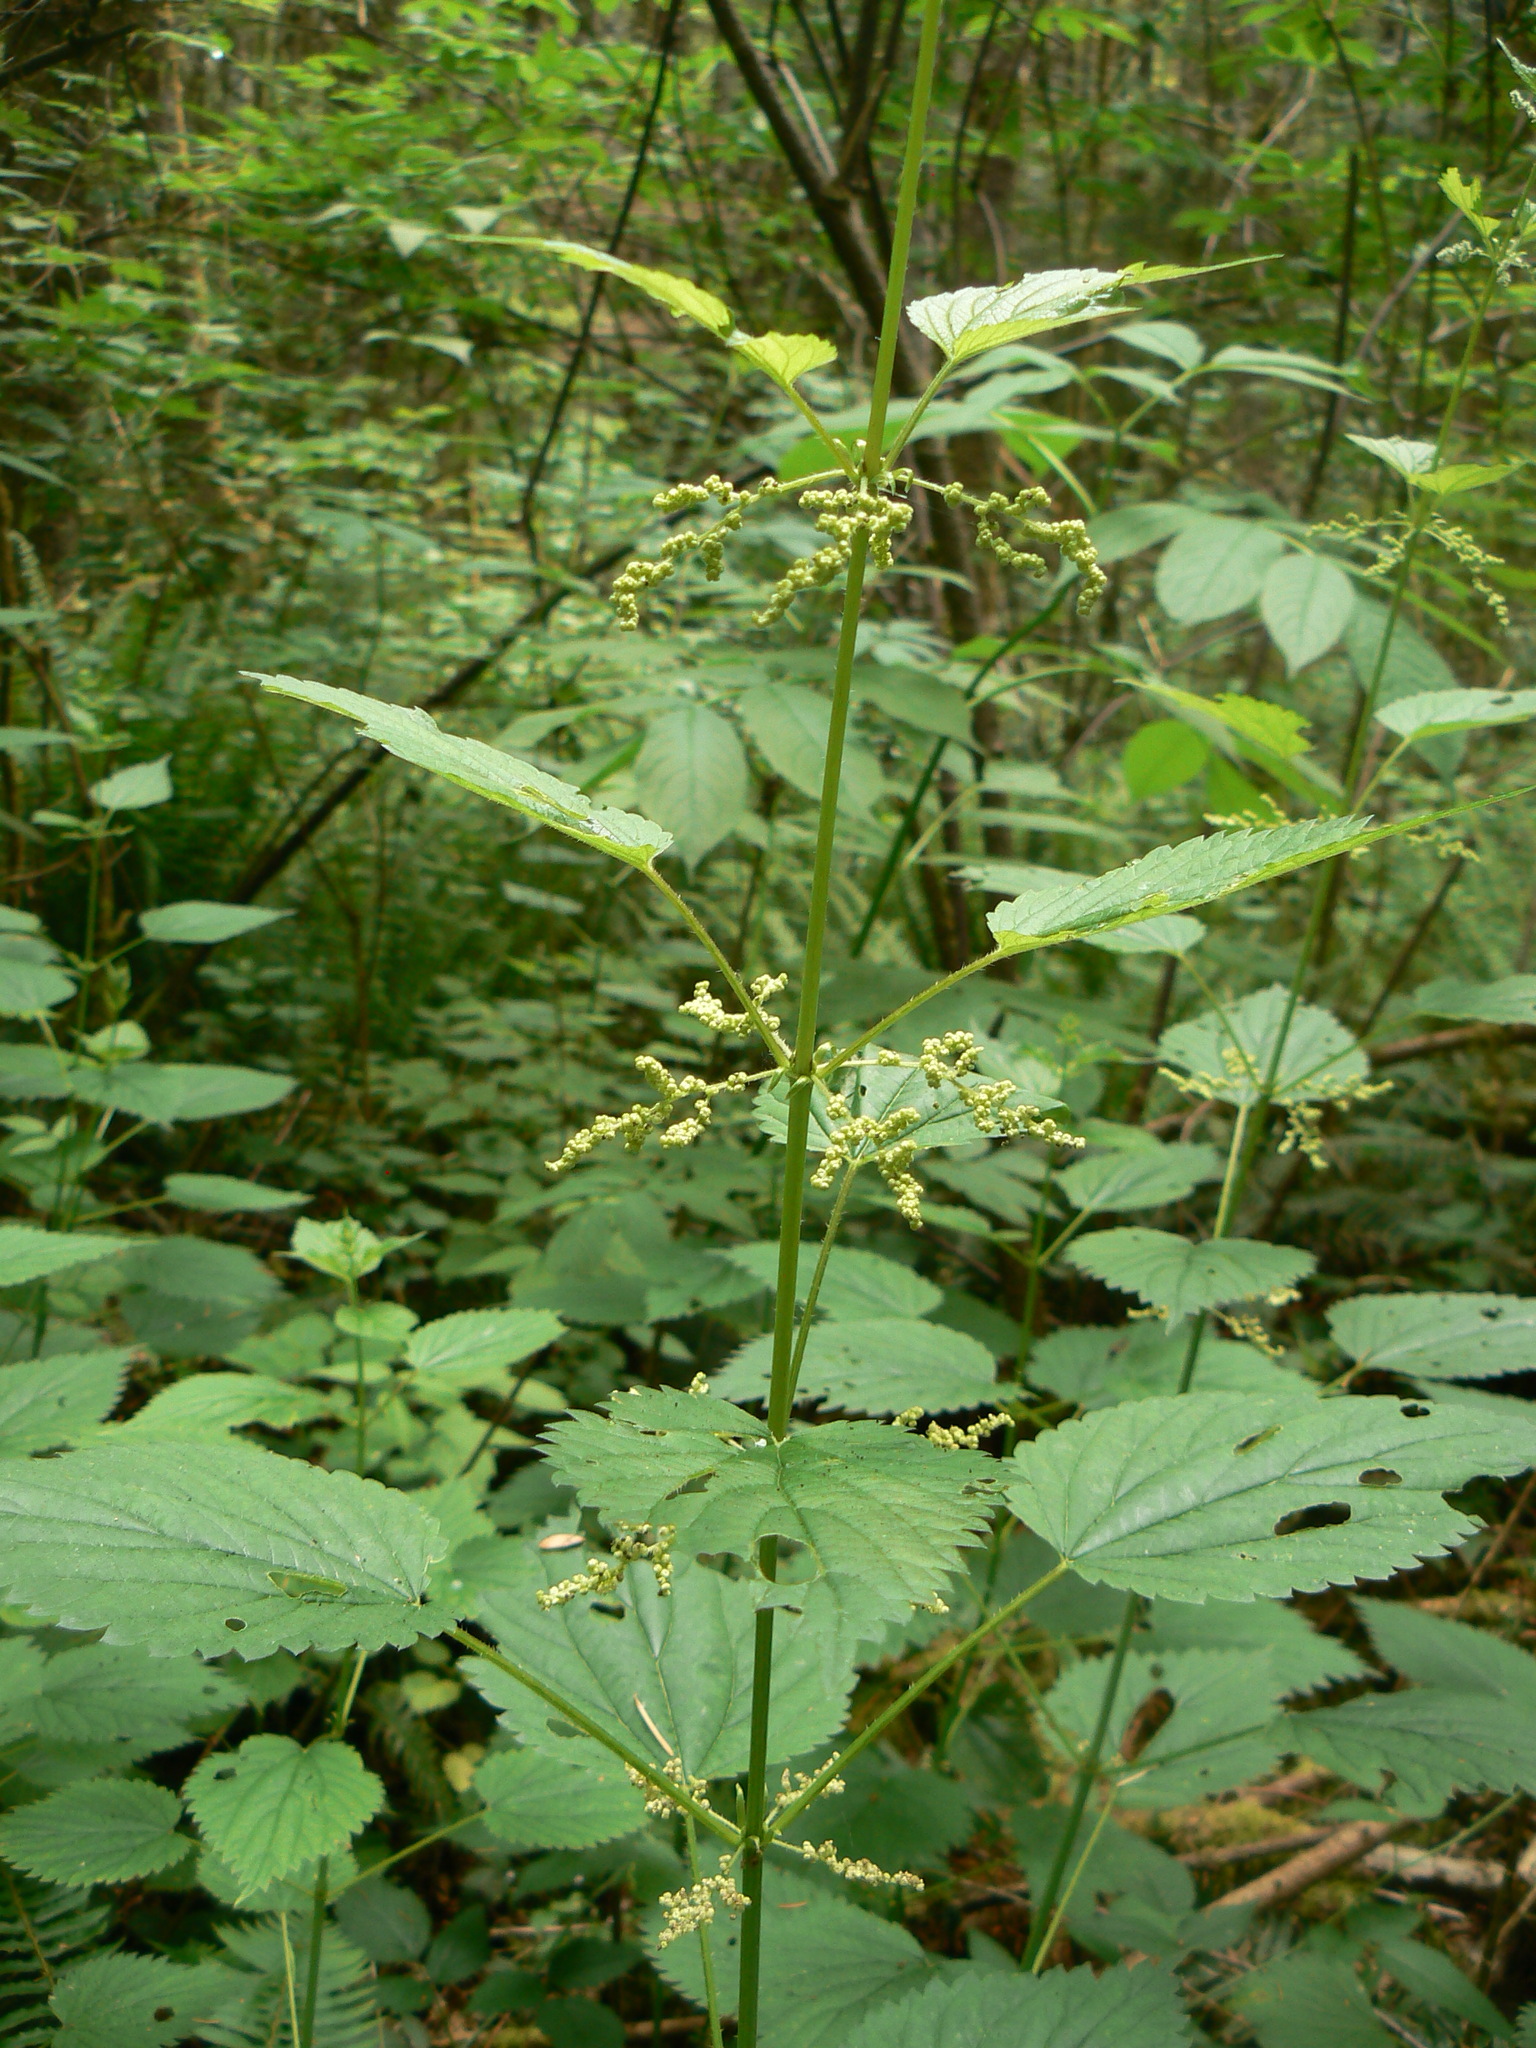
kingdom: Plantae
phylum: Tracheophyta
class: Magnoliopsida
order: Rosales
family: Urticaceae
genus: Urtica
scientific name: Urtica gracilis
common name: Slender stinging nettle
